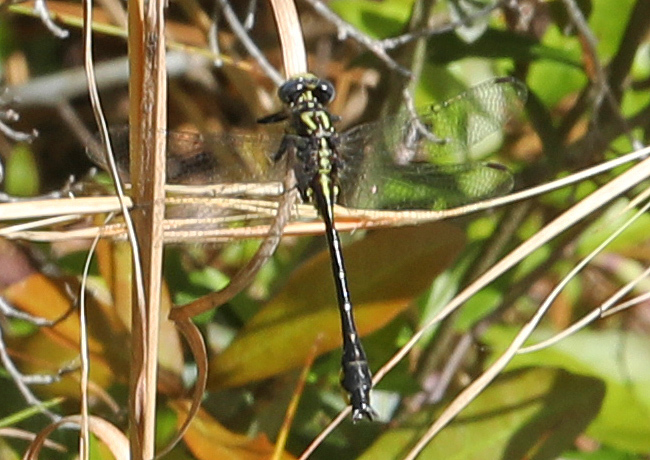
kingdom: Animalia
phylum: Arthropoda
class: Insecta
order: Odonata
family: Gomphidae
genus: Hylogomphus
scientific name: Hylogomphus geminatus
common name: Twin-striped clubtail
